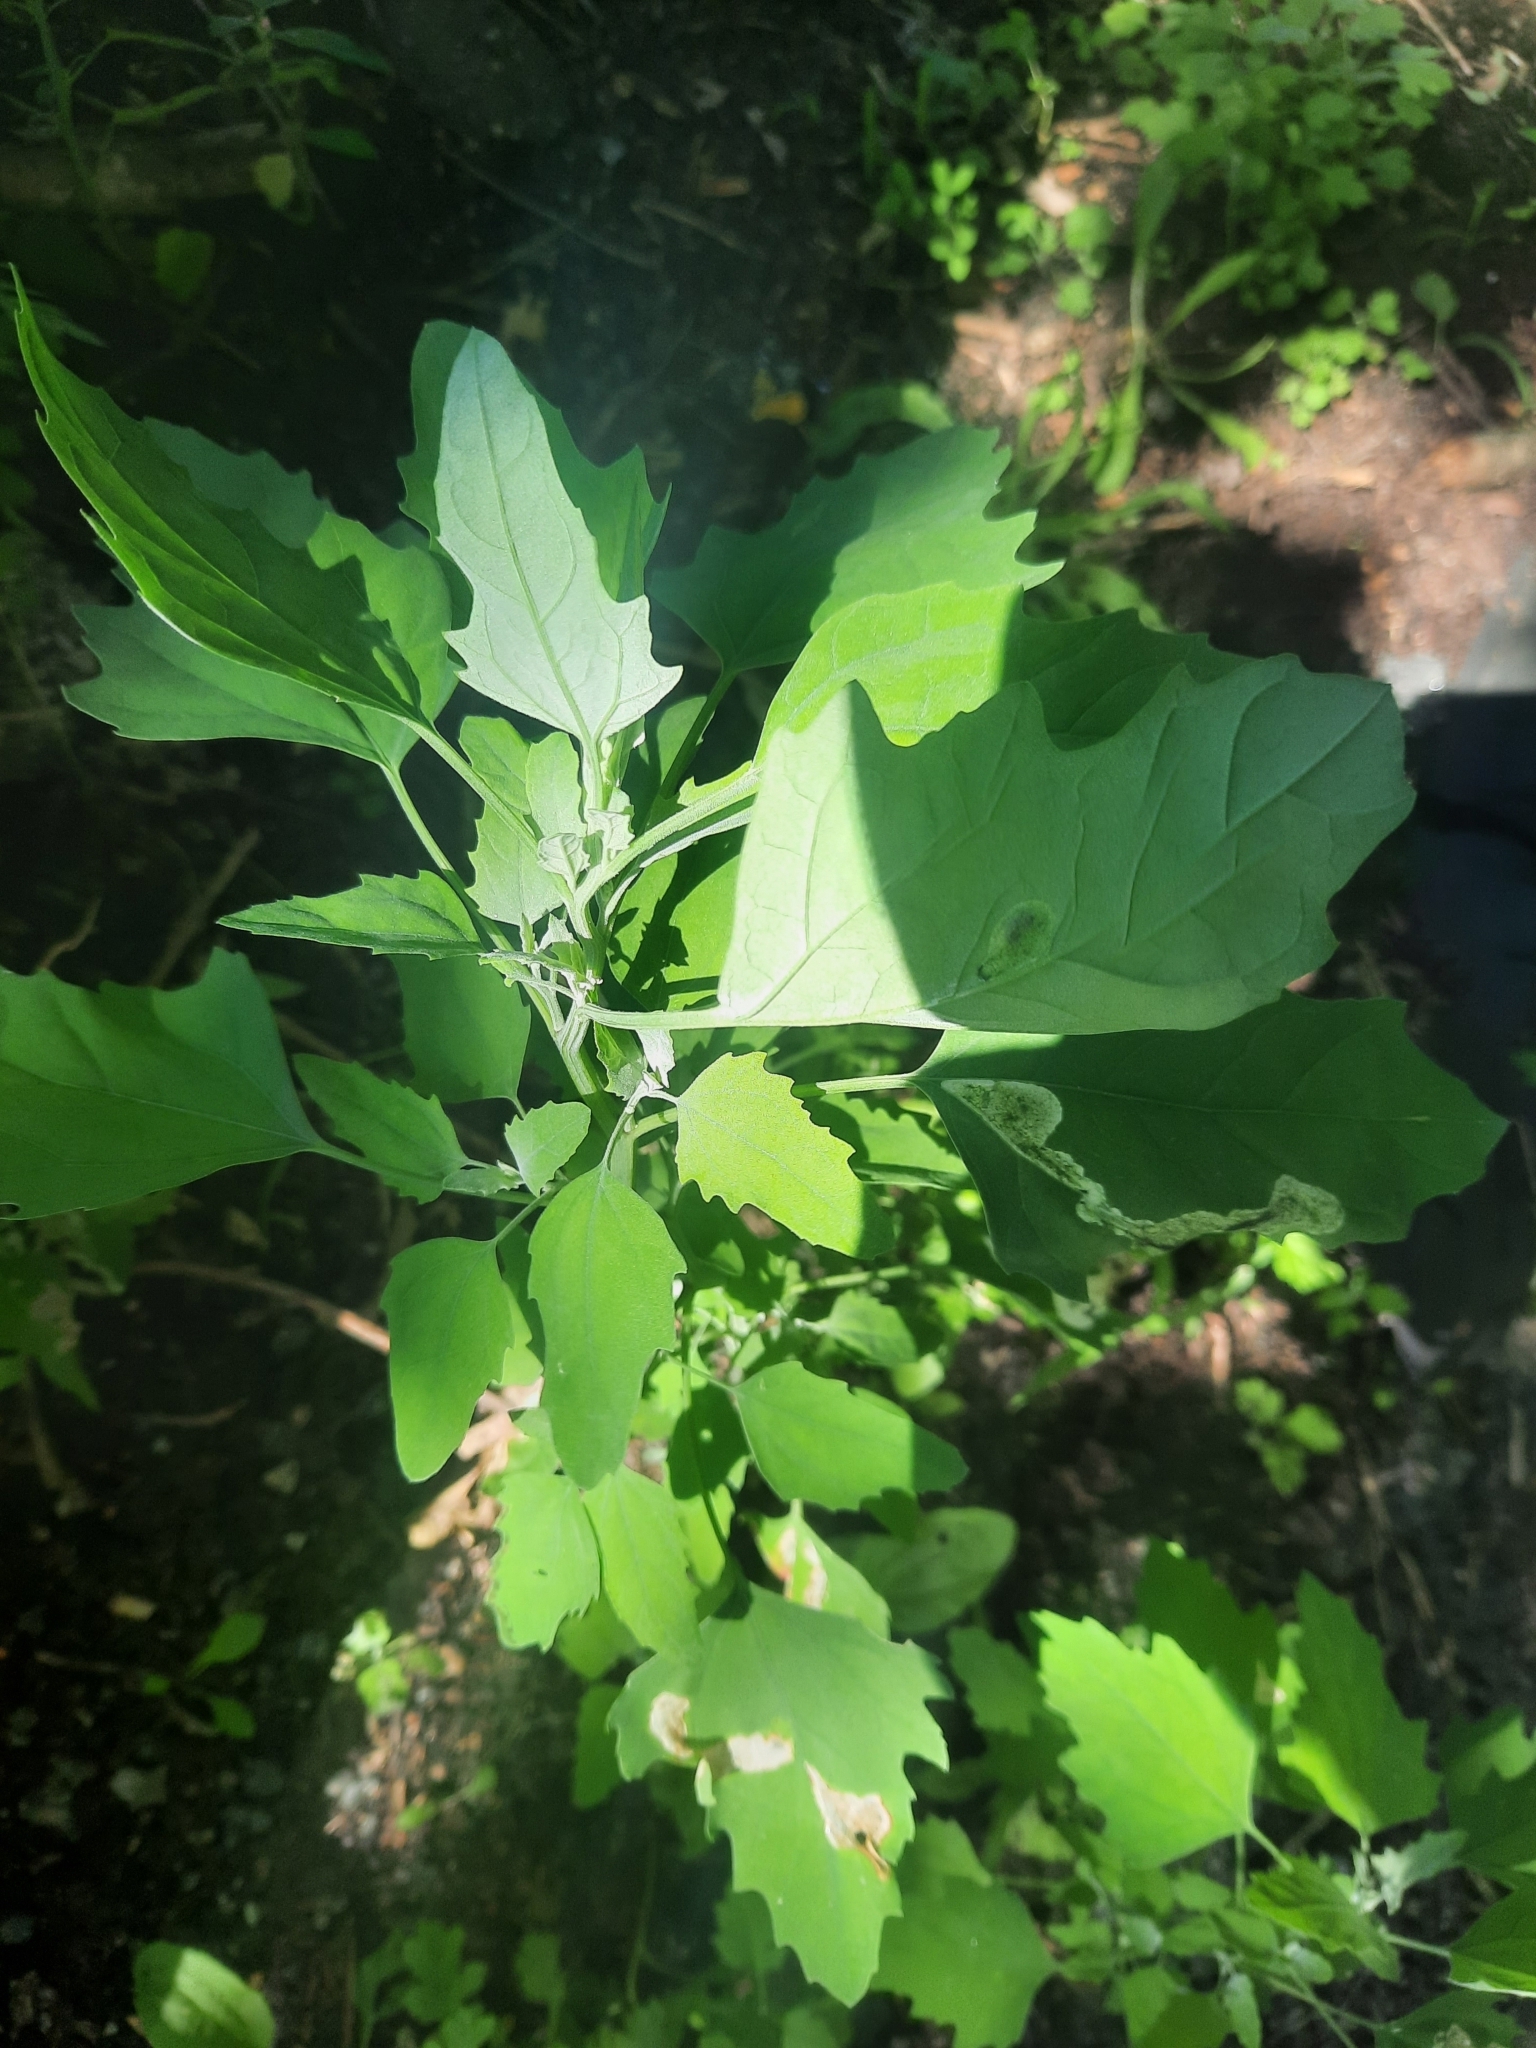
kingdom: Plantae
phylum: Tracheophyta
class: Magnoliopsida
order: Caryophyllales
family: Amaranthaceae
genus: Chenopodium
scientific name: Chenopodium album
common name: Fat-hen
